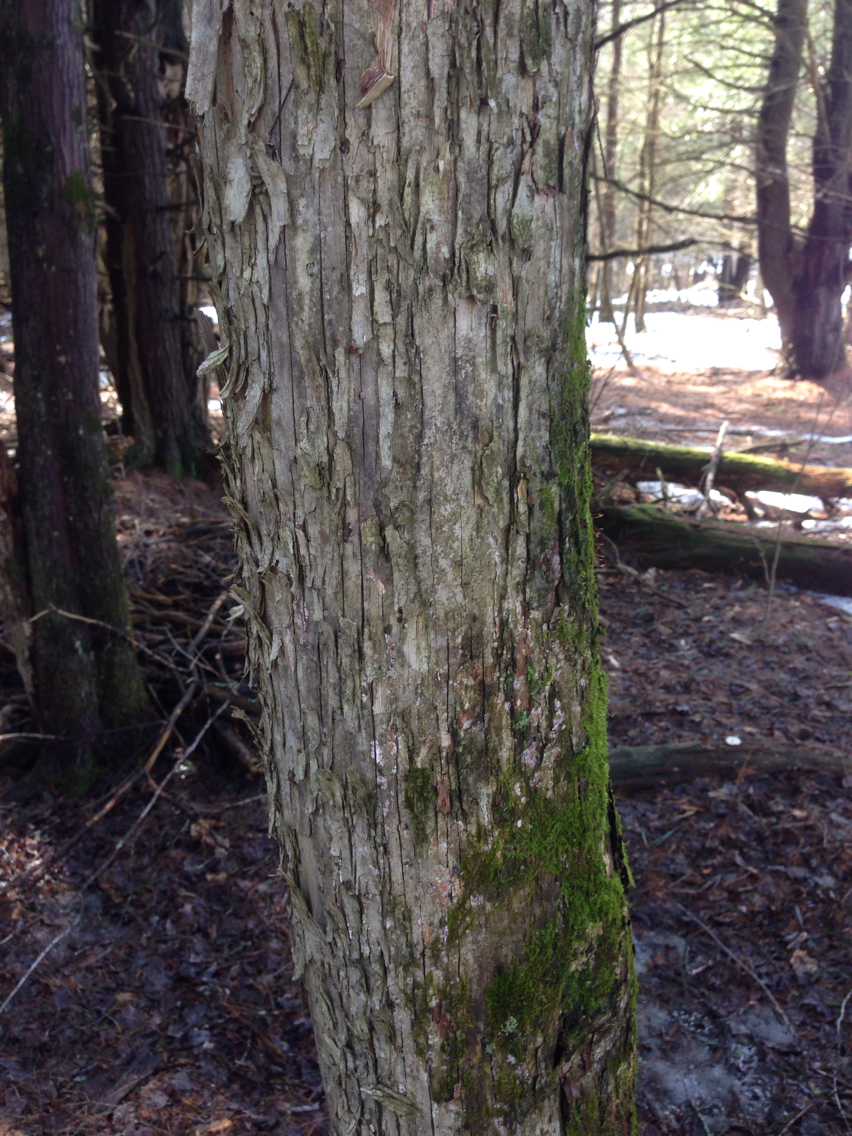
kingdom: Plantae
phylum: Tracheophyta
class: Magnoliopsida
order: Fagales
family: Betulaceae
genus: Ostrya
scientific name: Ostrya virginiana
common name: Ironwood
